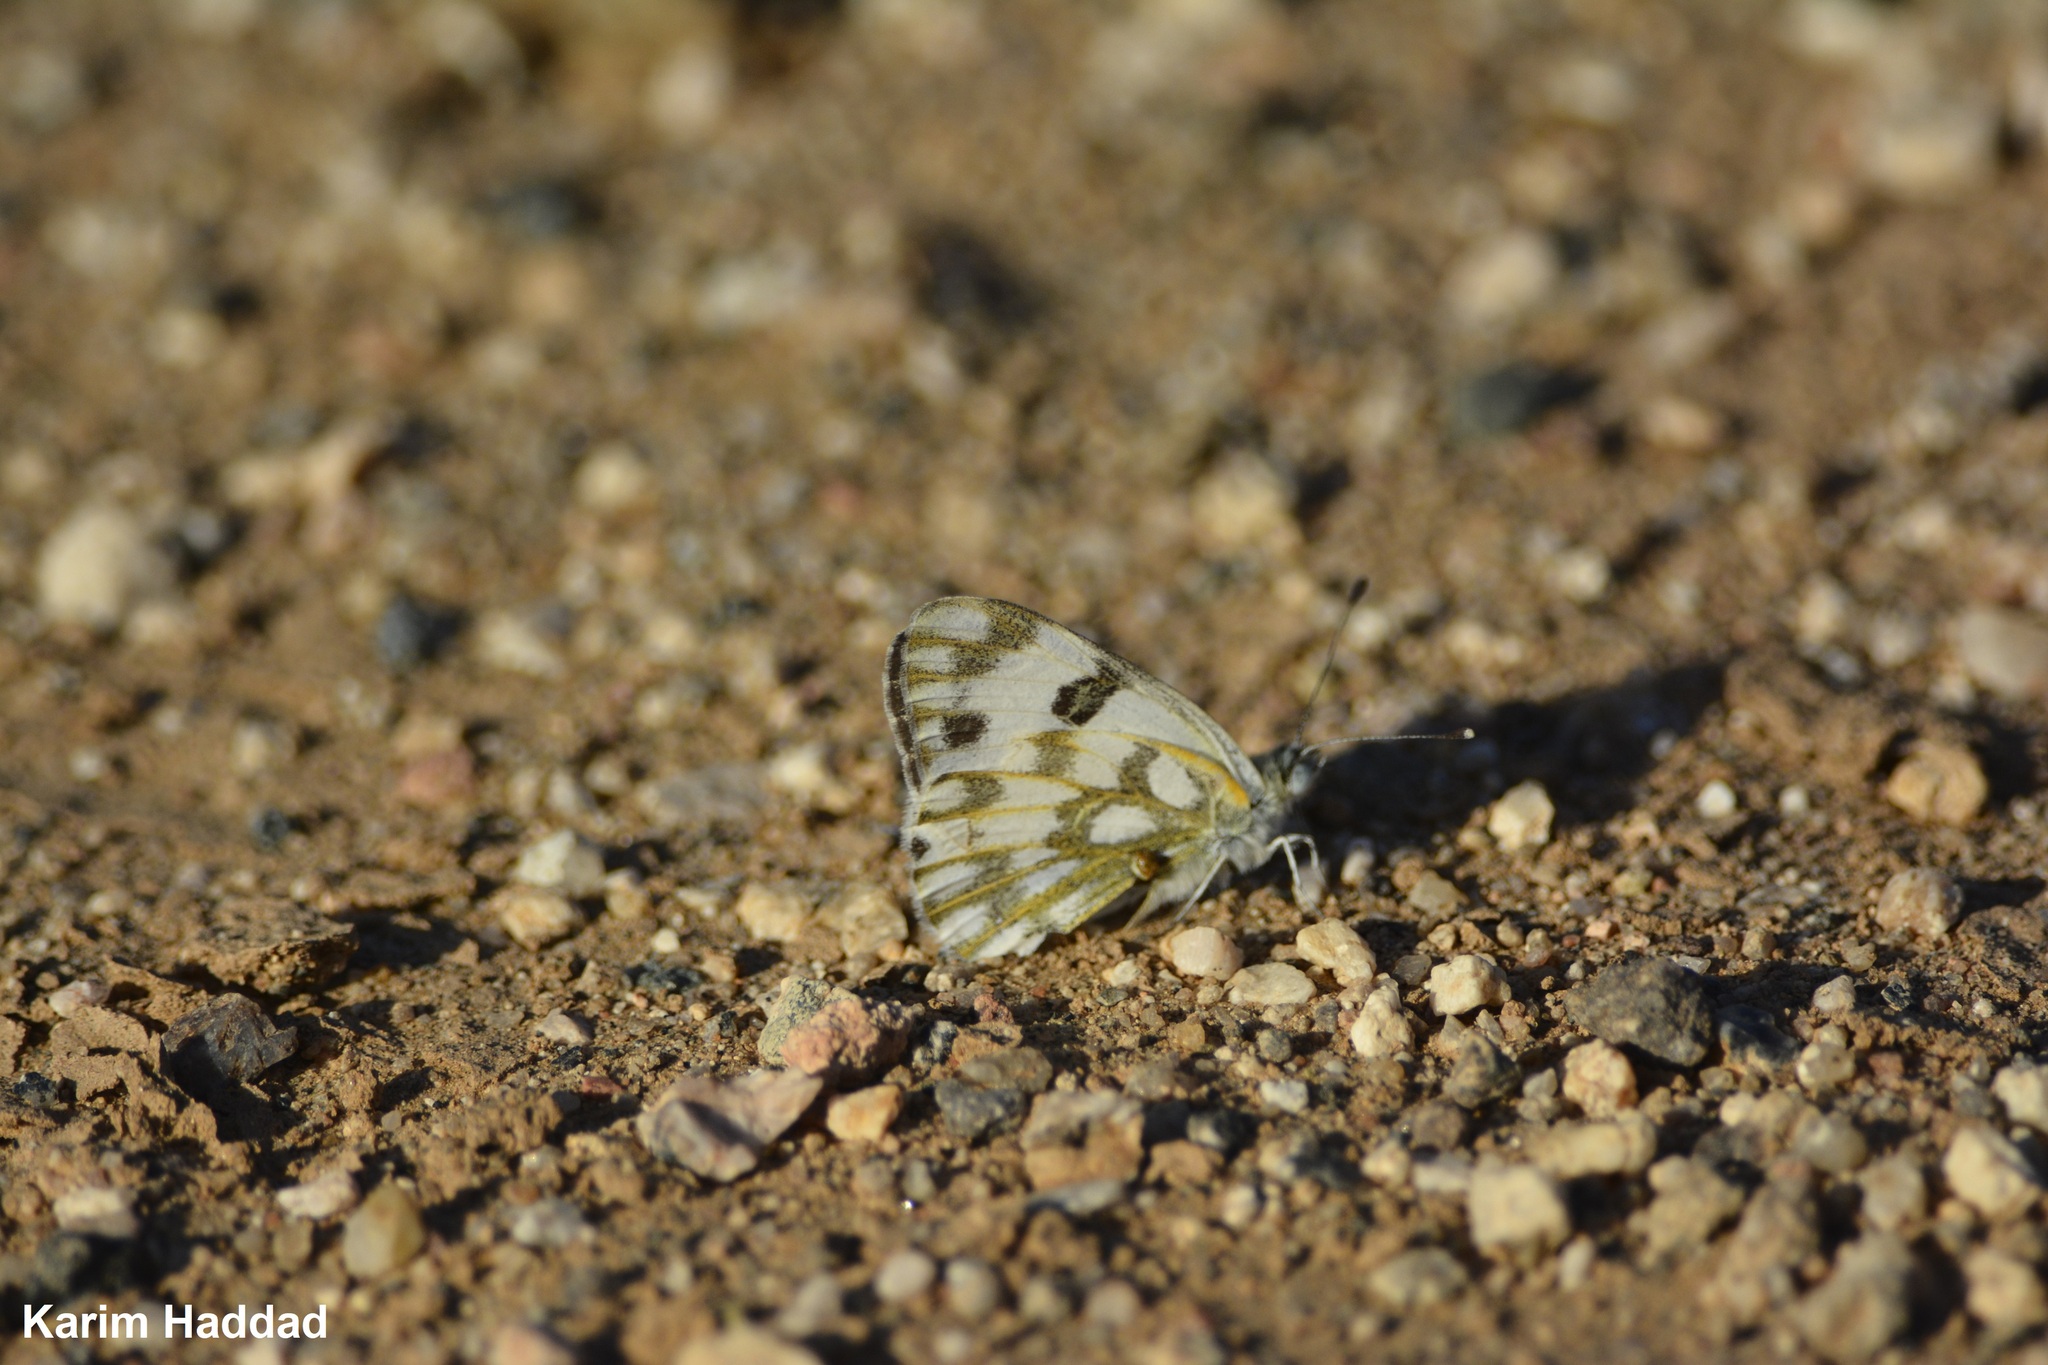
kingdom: Animalia
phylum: Arthropoda
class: Insecta
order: Lepidoptera
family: Pieridae
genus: Pontia
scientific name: Pontia glauconome
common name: Desert bath white
